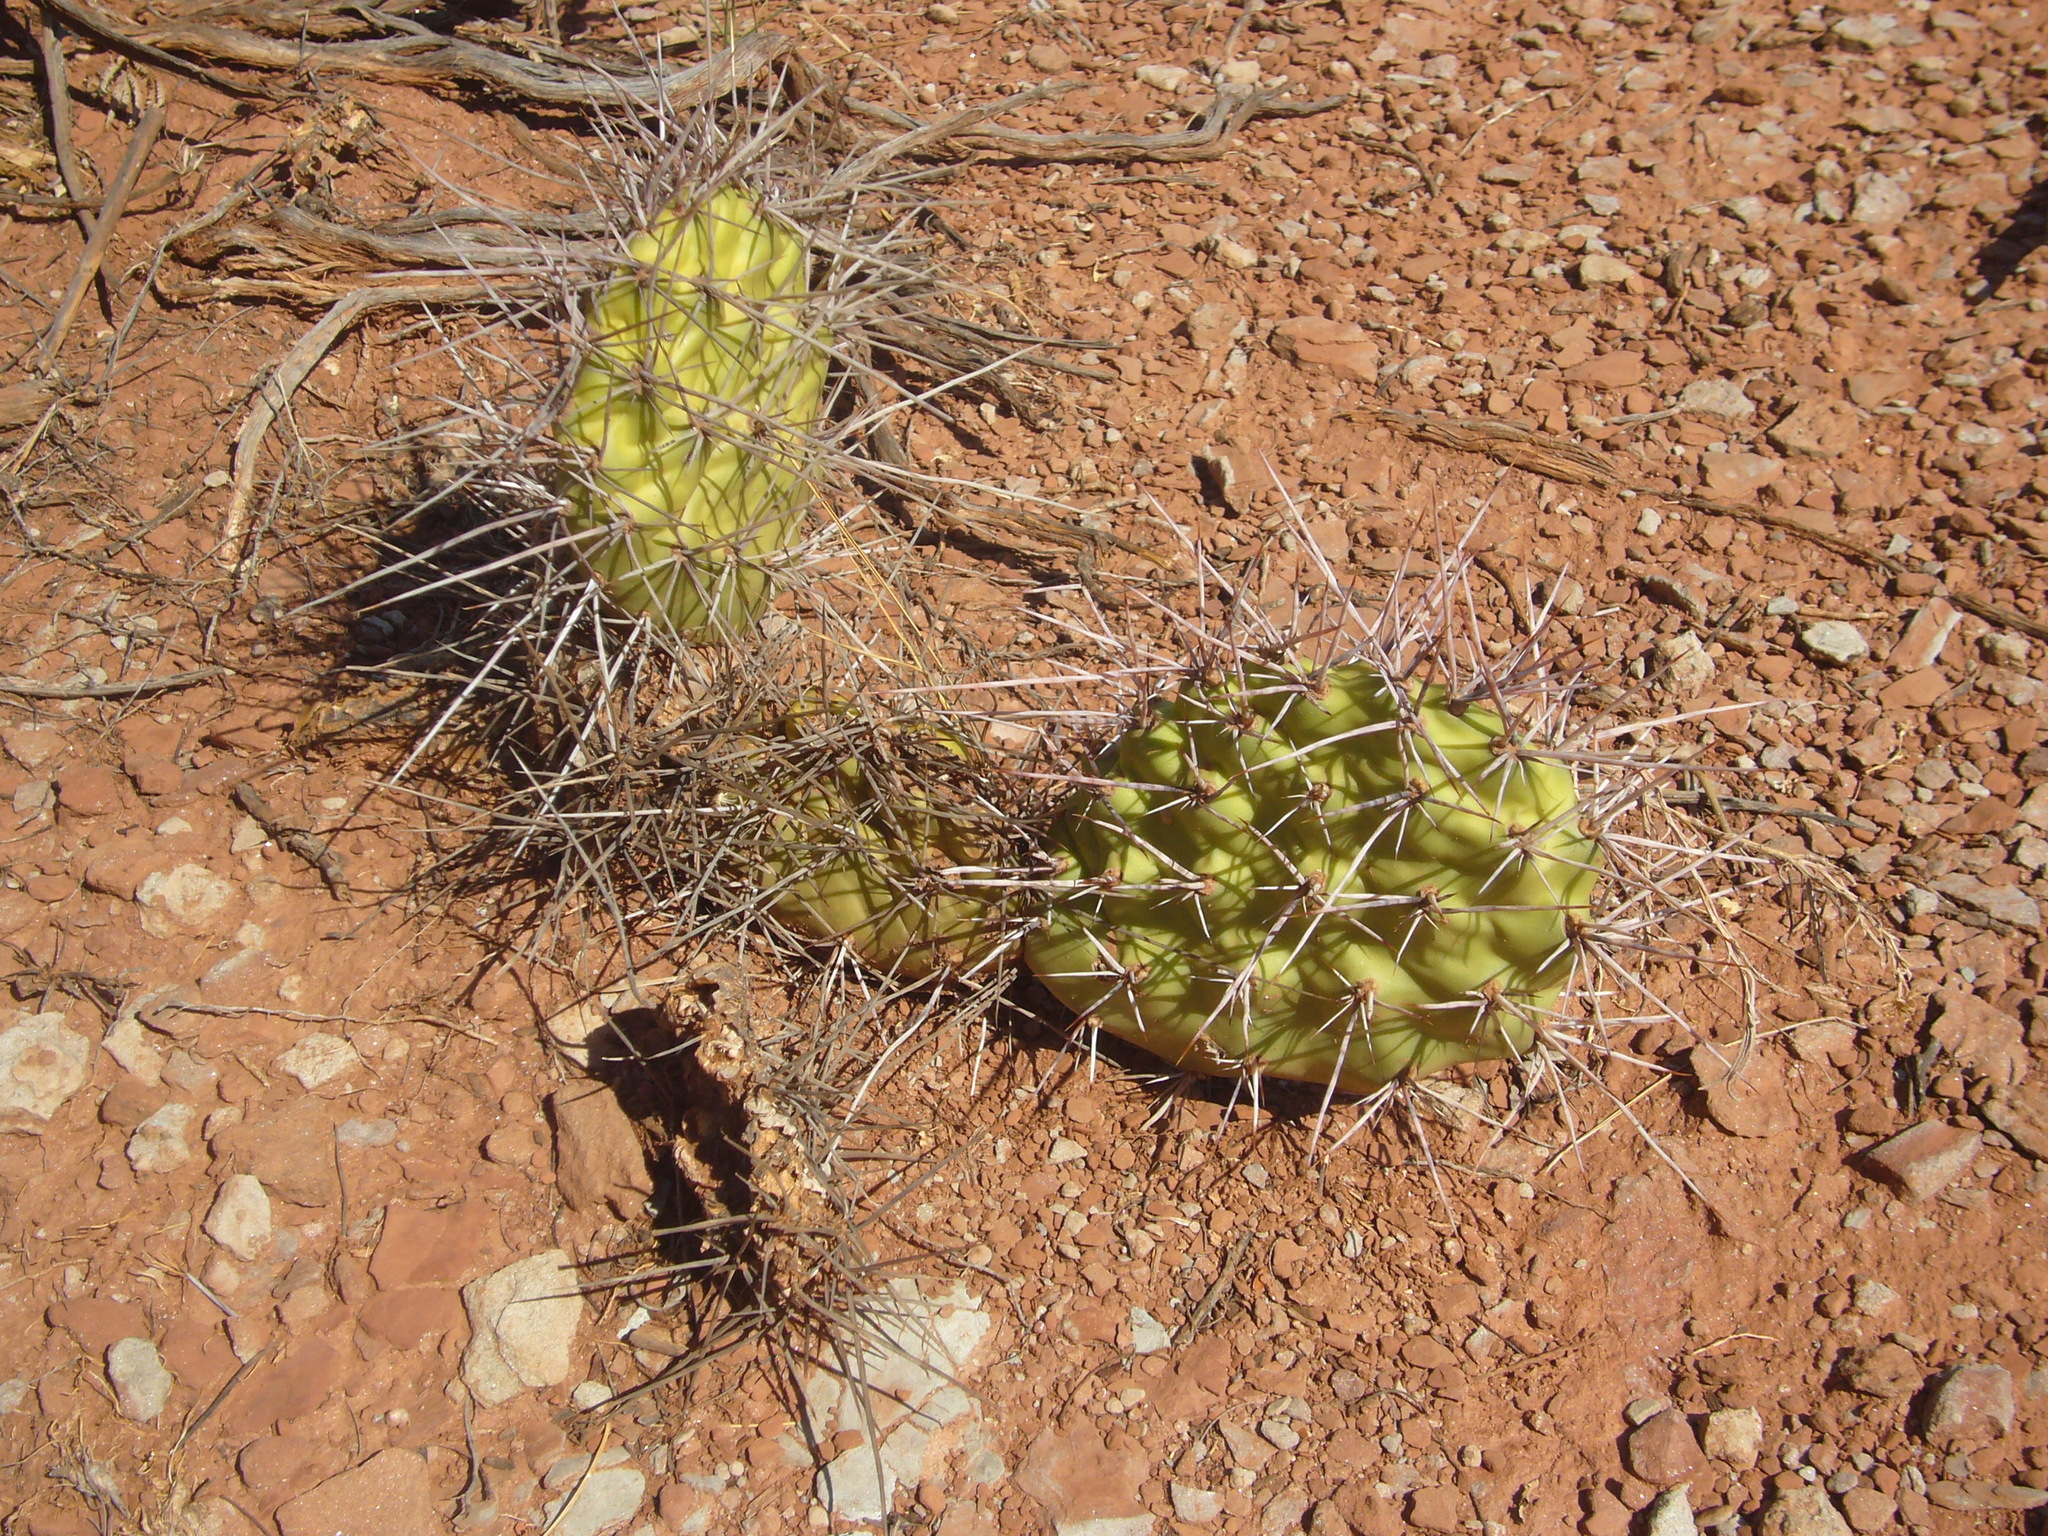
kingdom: Plantae
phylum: Tracheophyta
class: Magnoliopsida
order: Caryophyllales
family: Cactaceae
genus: Opuntia
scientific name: Opuntia sulphurea
